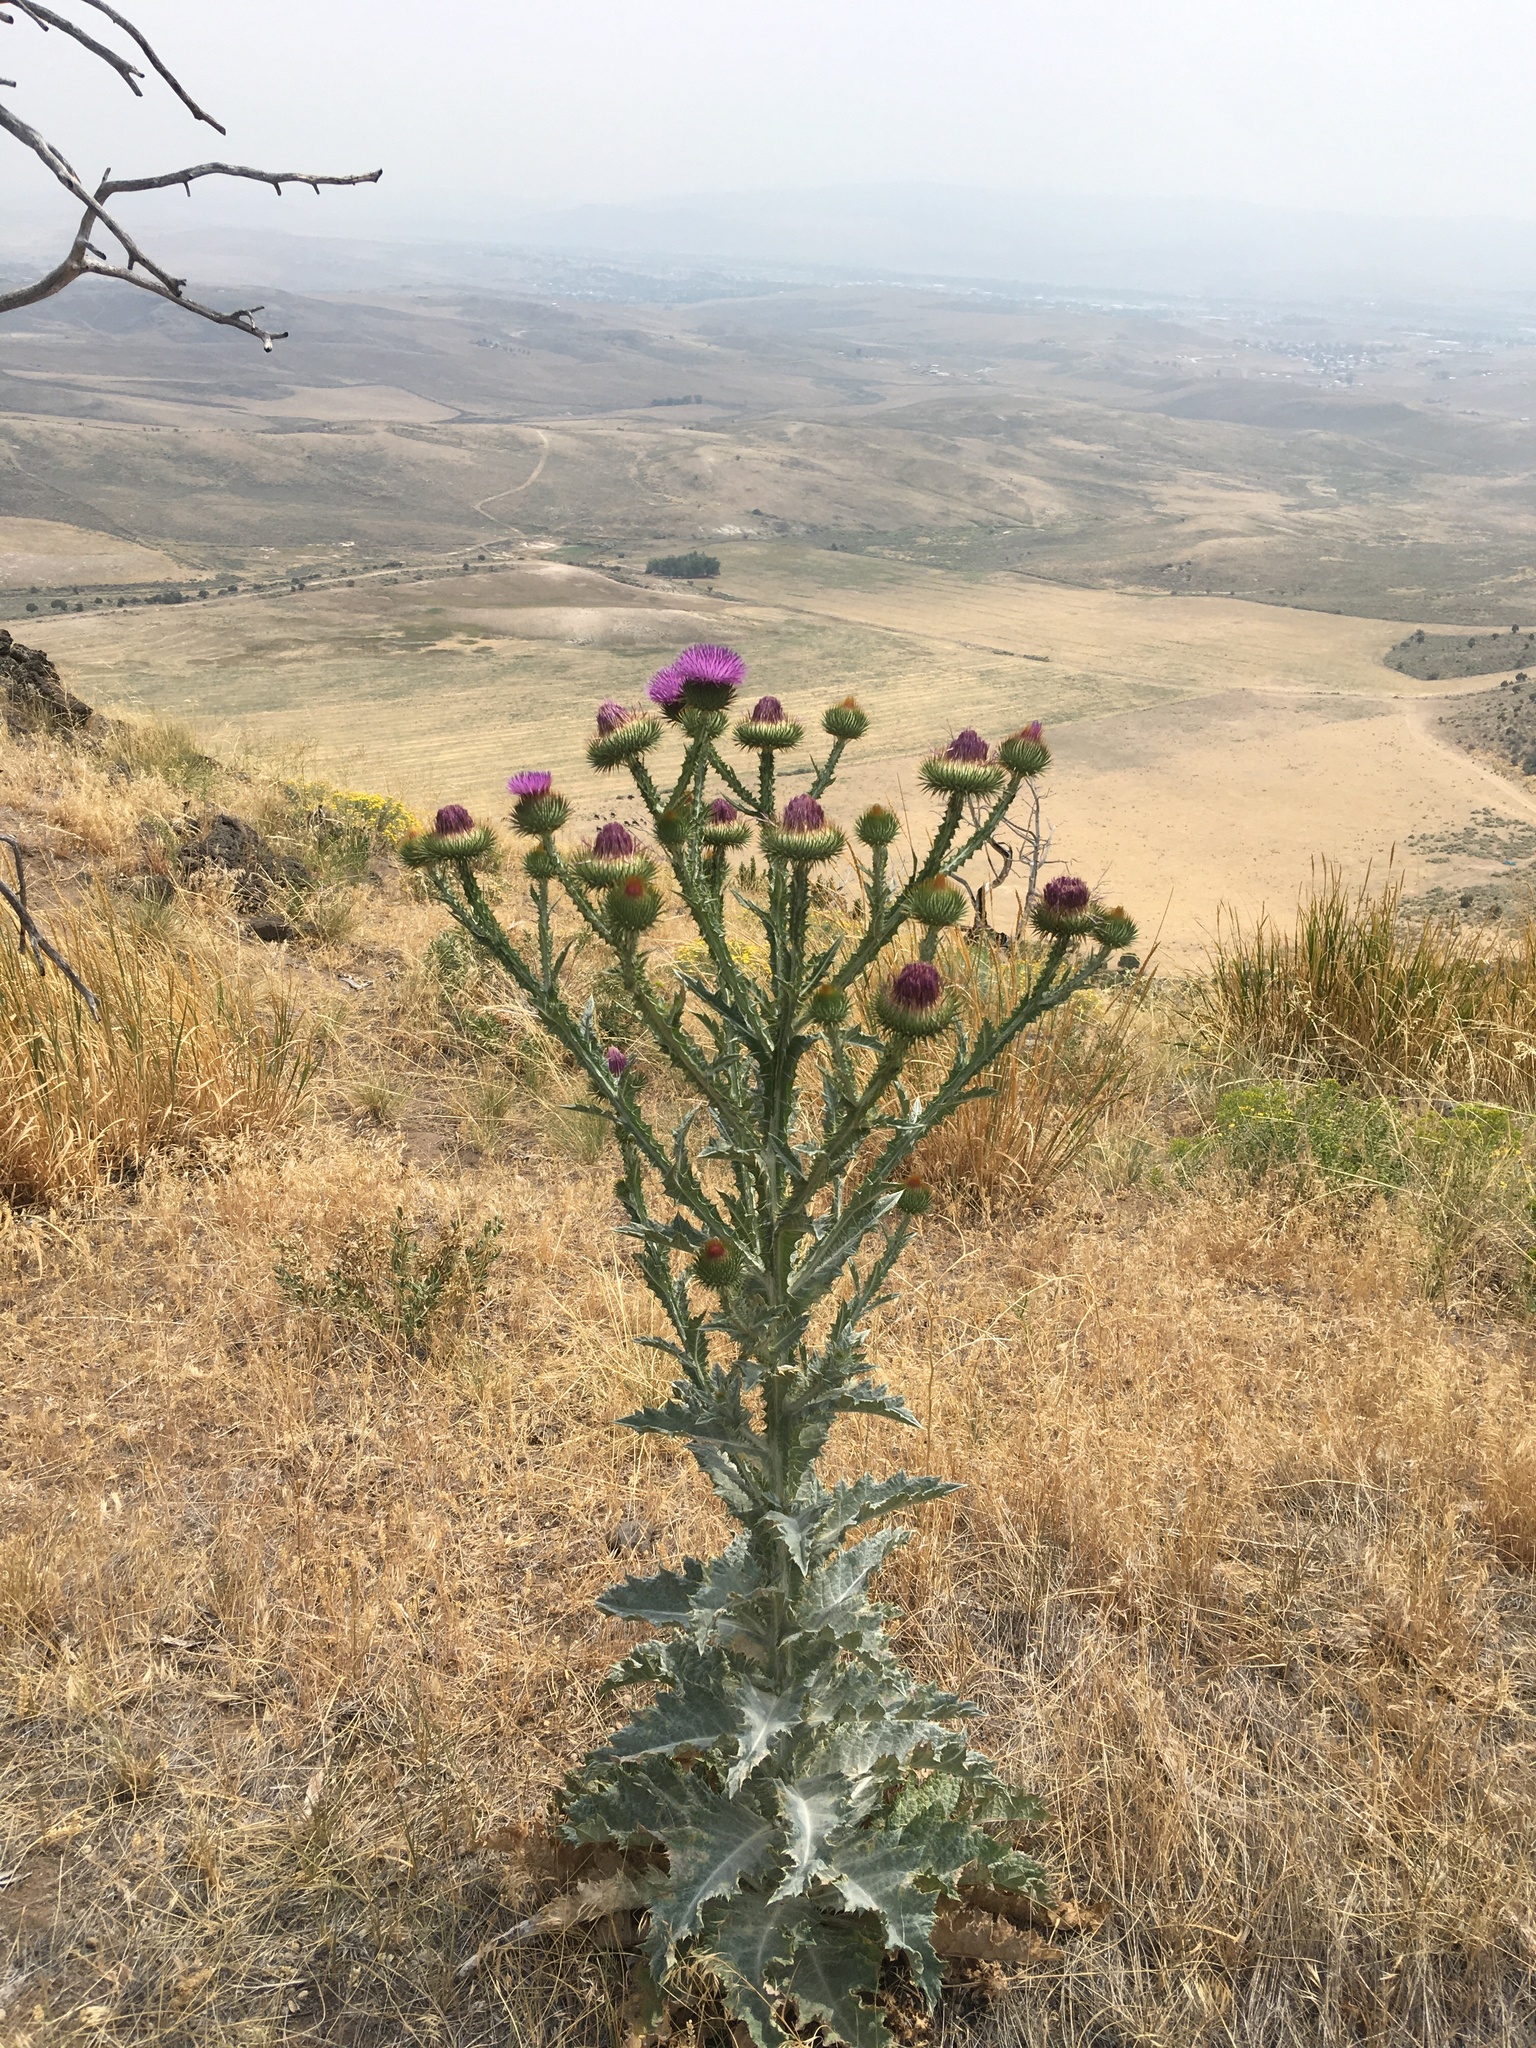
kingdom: Plantae
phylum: Tracheophyta
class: Magnoliopsida
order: Asterales
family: Asteraceae
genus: Onopordum
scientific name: Onopordum acanthium
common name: Scotch thistle
